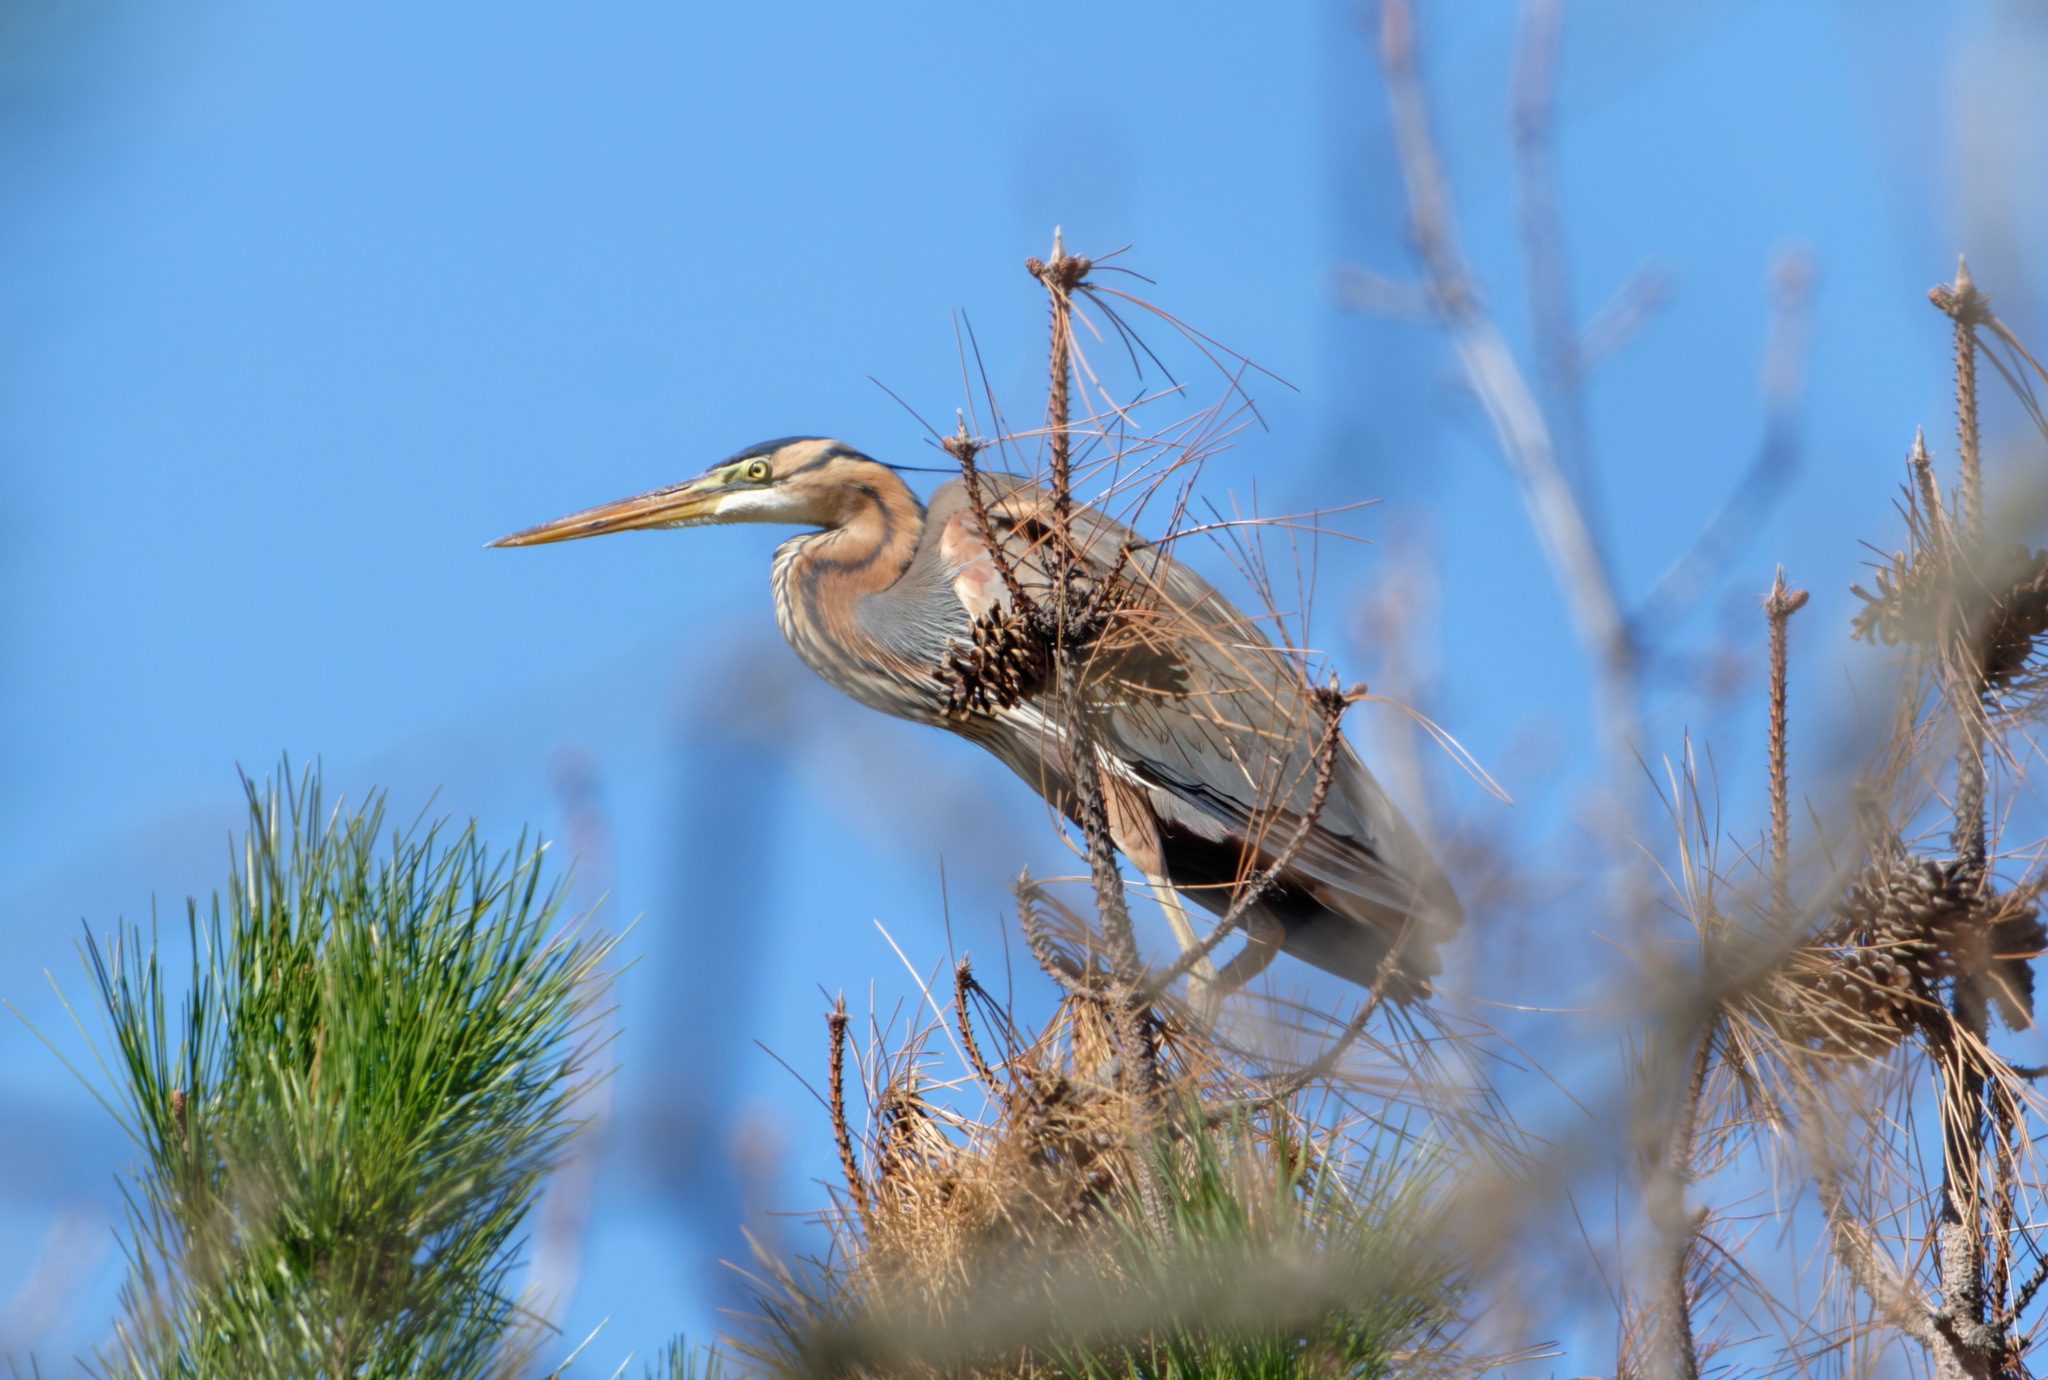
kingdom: Animalia
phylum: Chordata
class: Aves
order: Pelecaniformes
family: Ardeidae
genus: Ardea
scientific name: Ardea purpurea
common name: Purple heron
